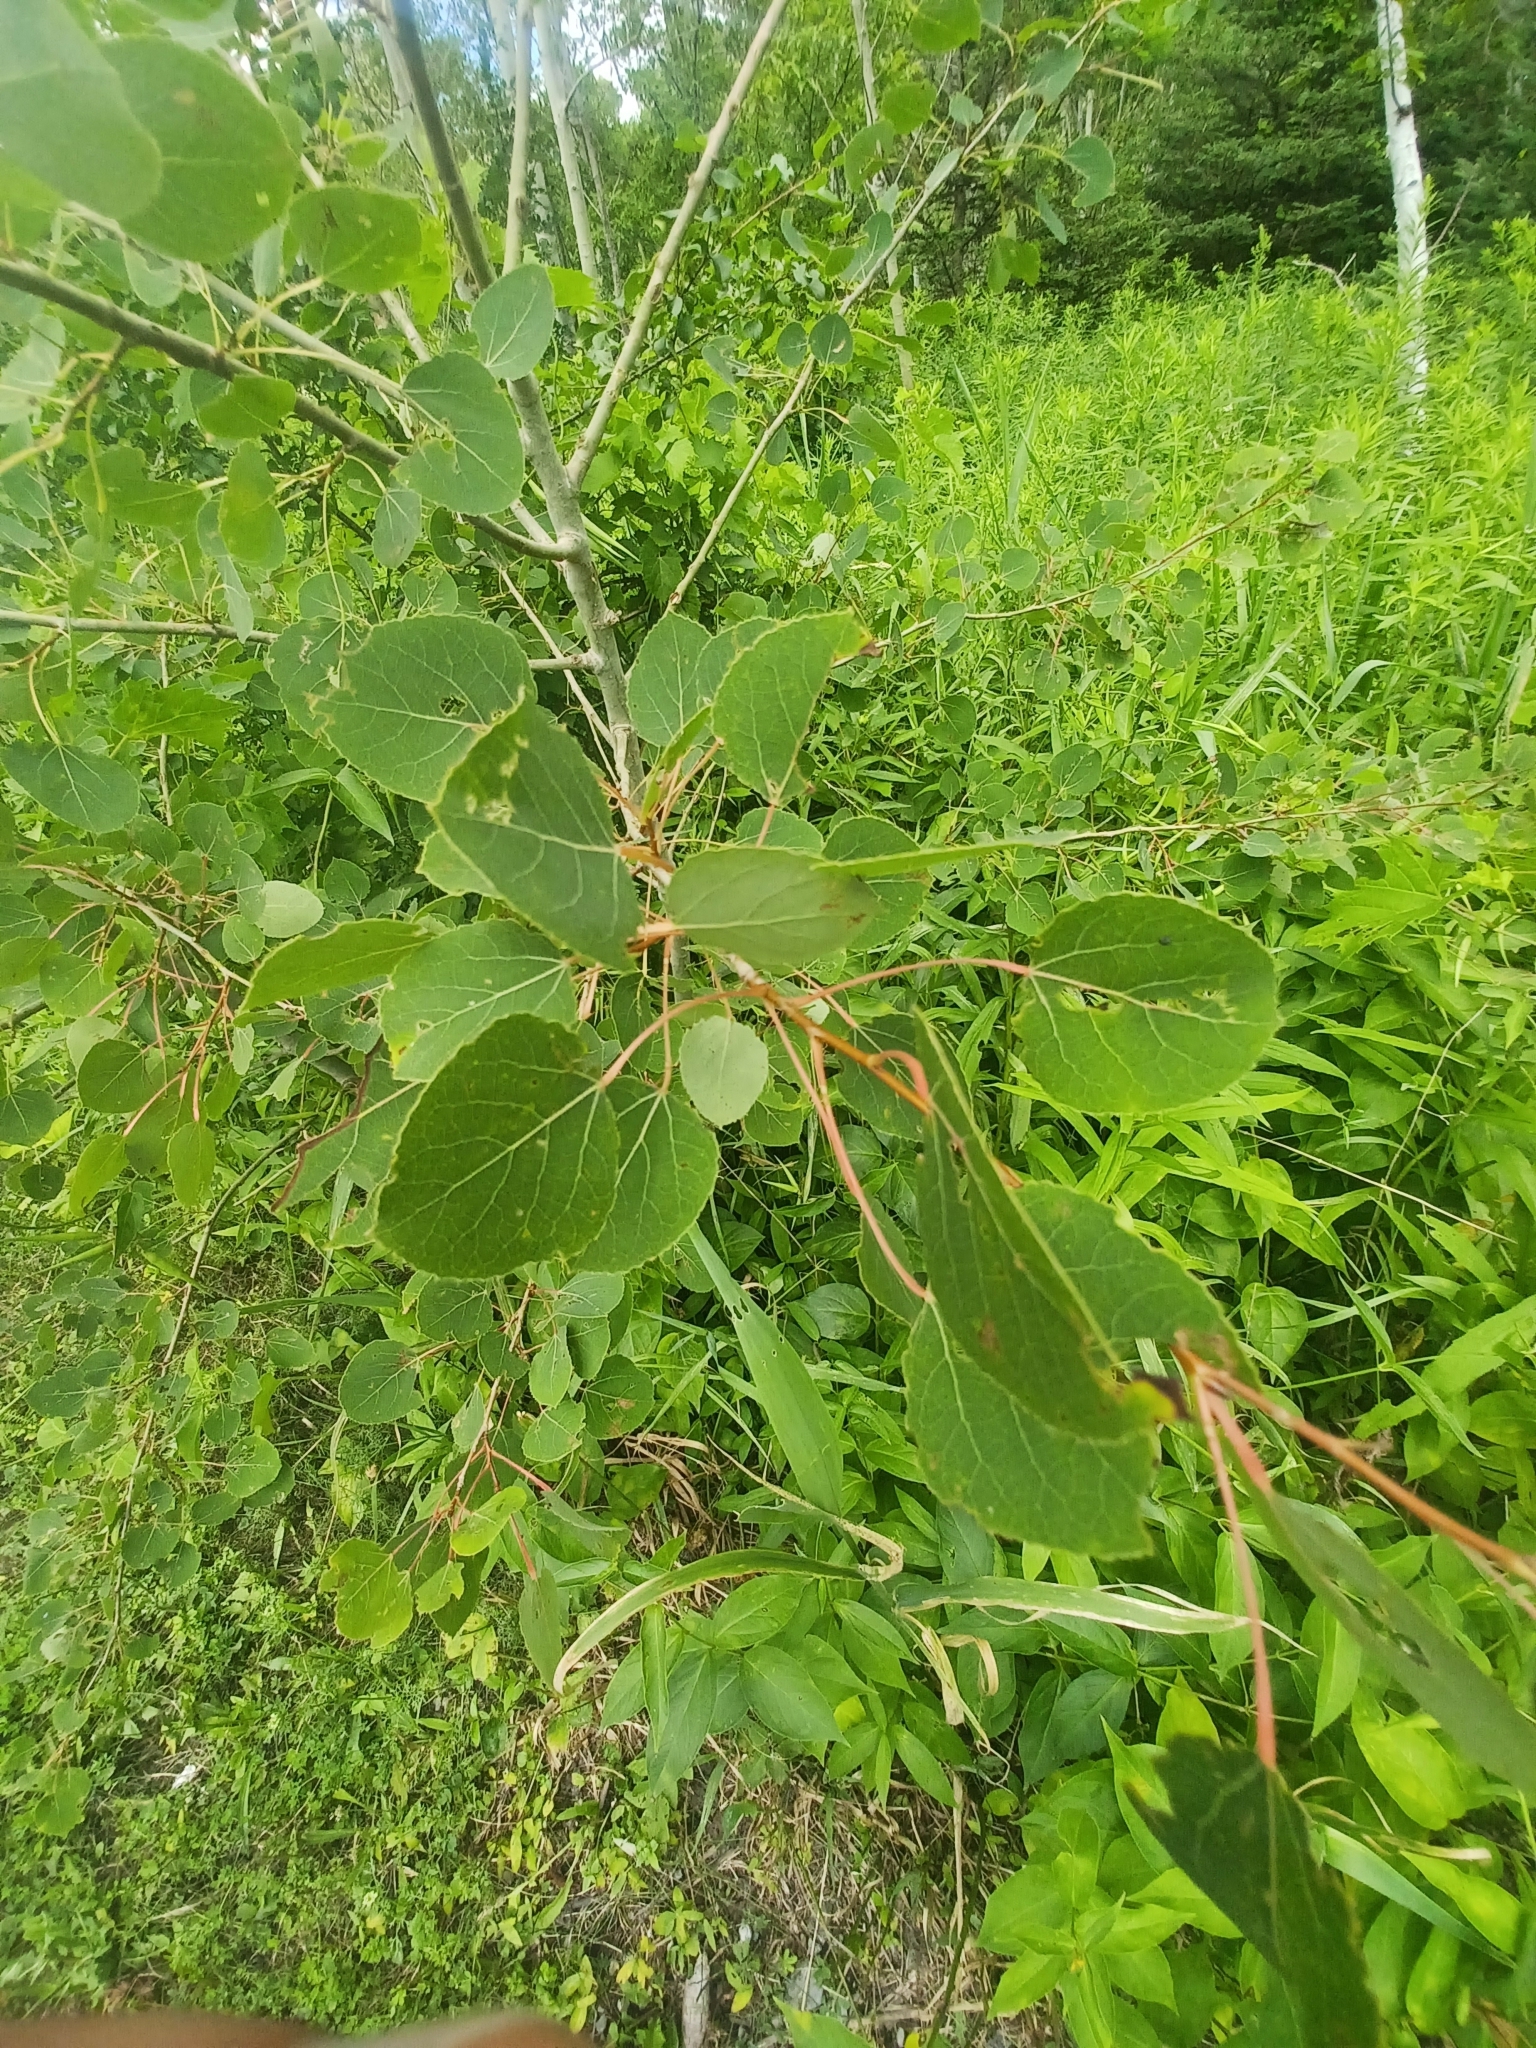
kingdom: Plantae
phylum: Tracheophyta
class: Magnoliopsida
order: Malpighiales
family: Salicaceae
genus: Populus
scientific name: Populus tremuloides
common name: Quaking aspen
